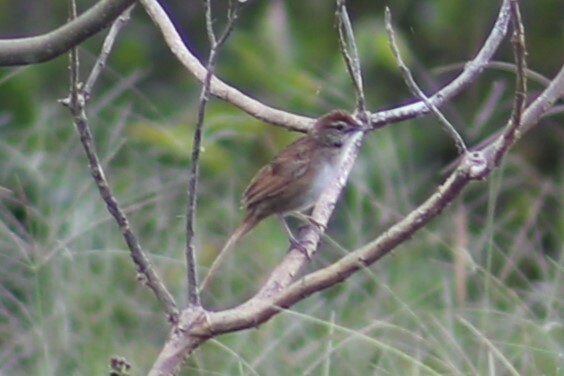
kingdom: Animalia
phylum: Chordata
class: Aves
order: Passeriformes
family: Locustellidae
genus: Megalurus
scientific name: Megalurus timoriensis
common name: Tawny grassbird
